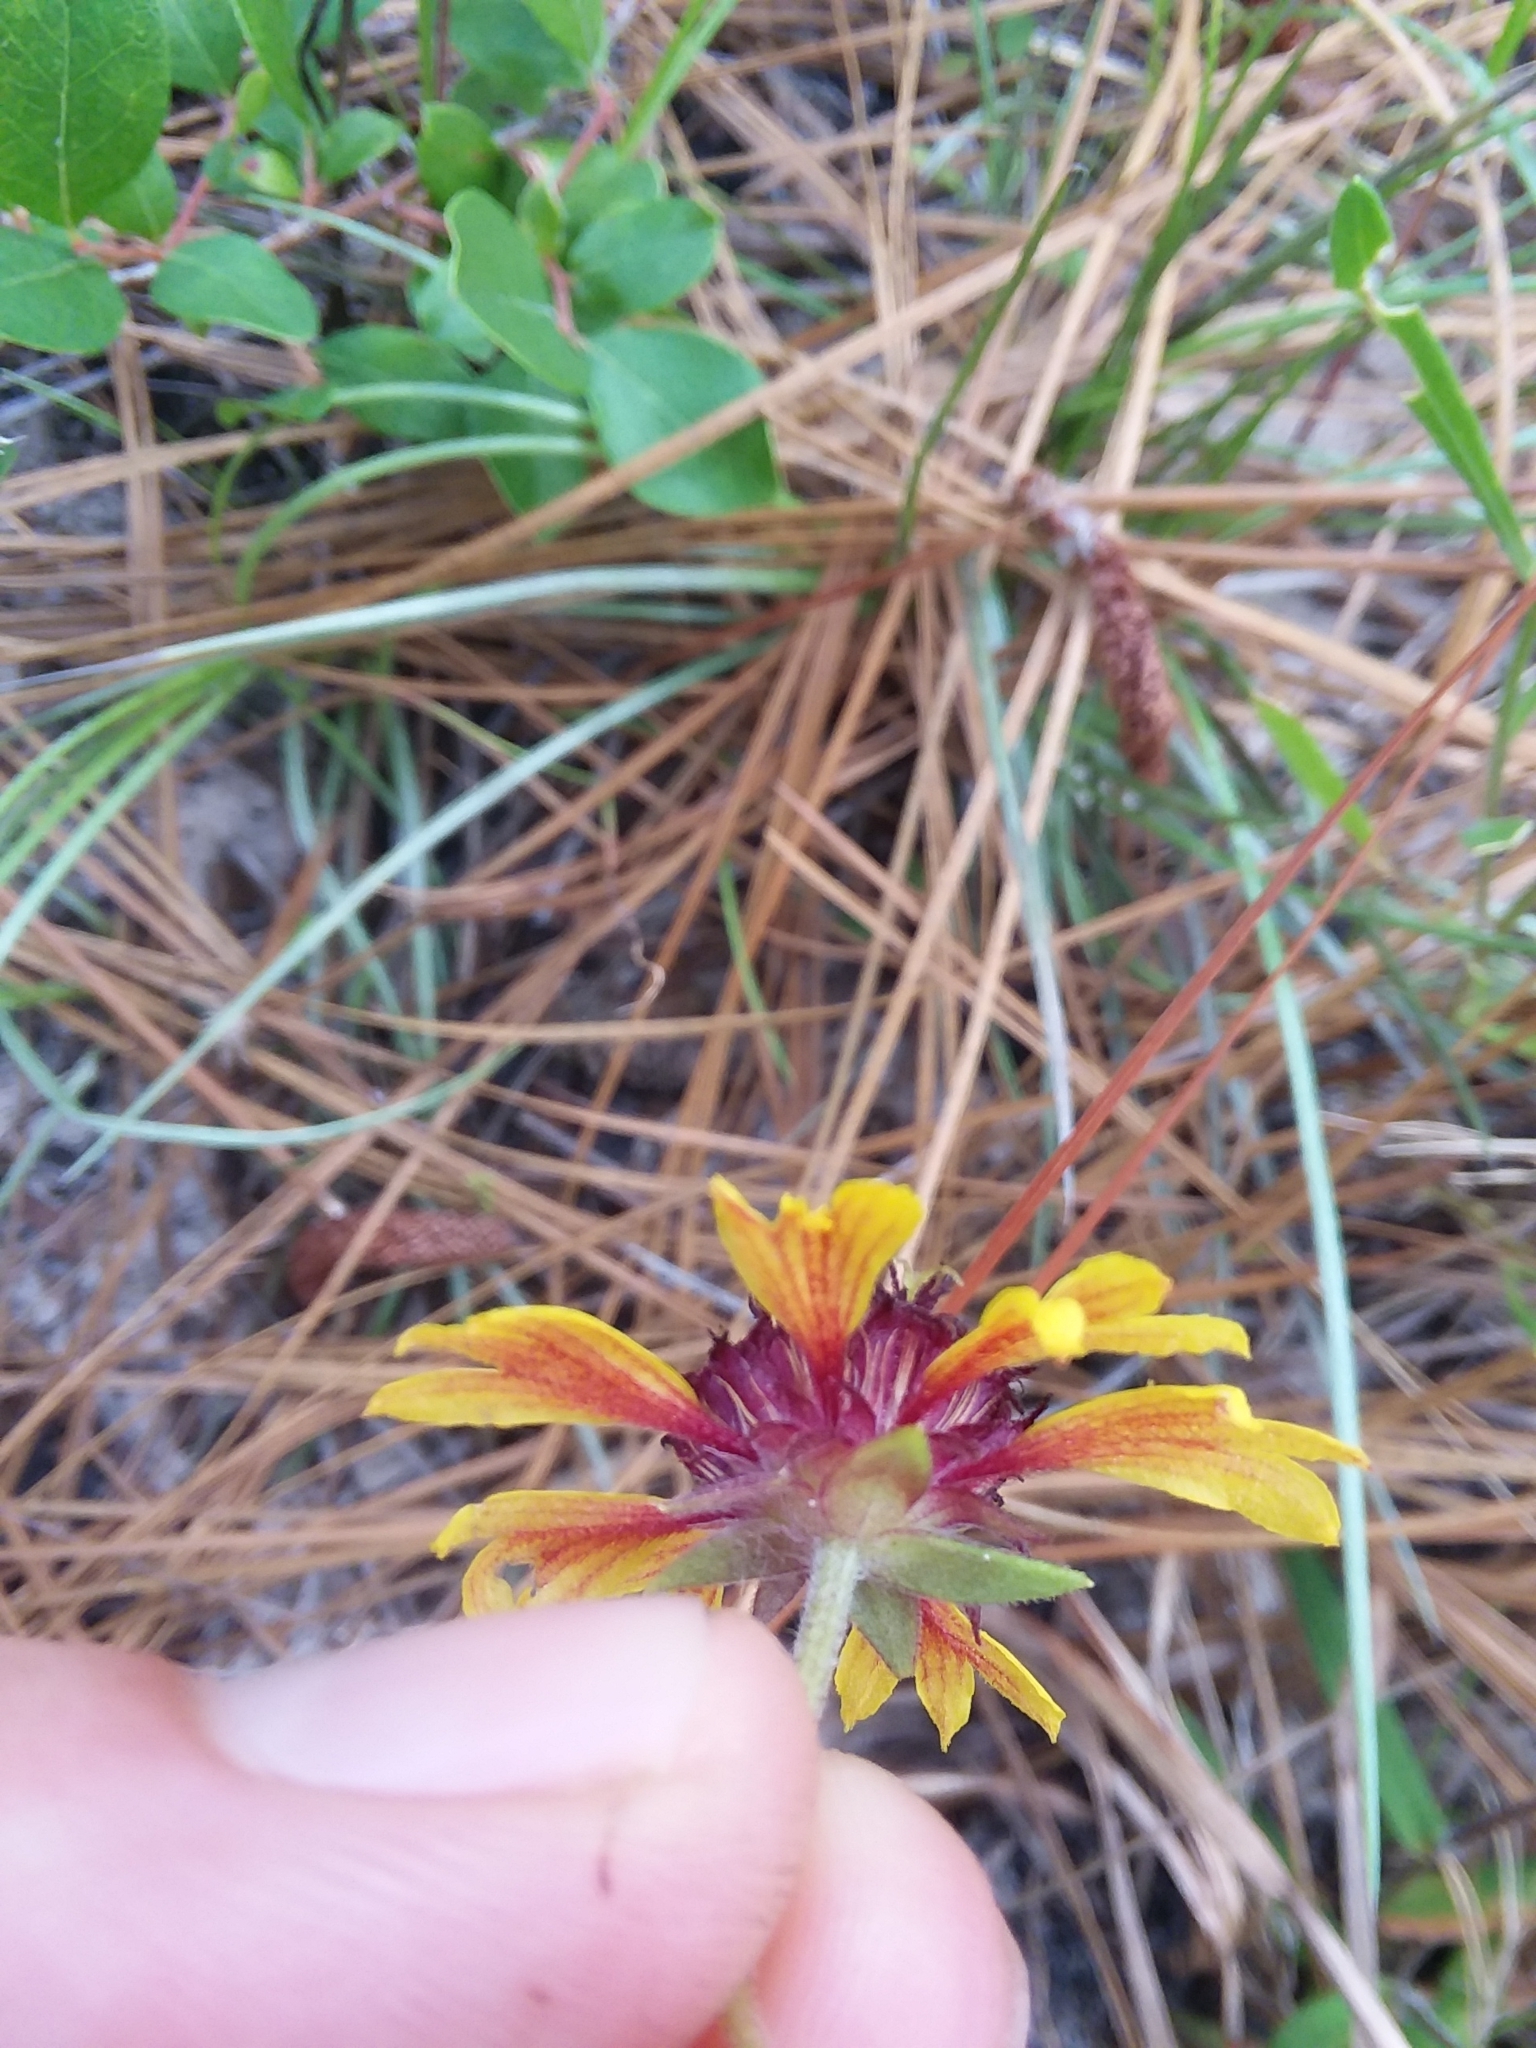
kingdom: Plantae
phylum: Tracheophyta
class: Magnoliopsida
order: Asterales
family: Asteraceae
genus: Gaillardia
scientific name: Gaillardia aestivalis
